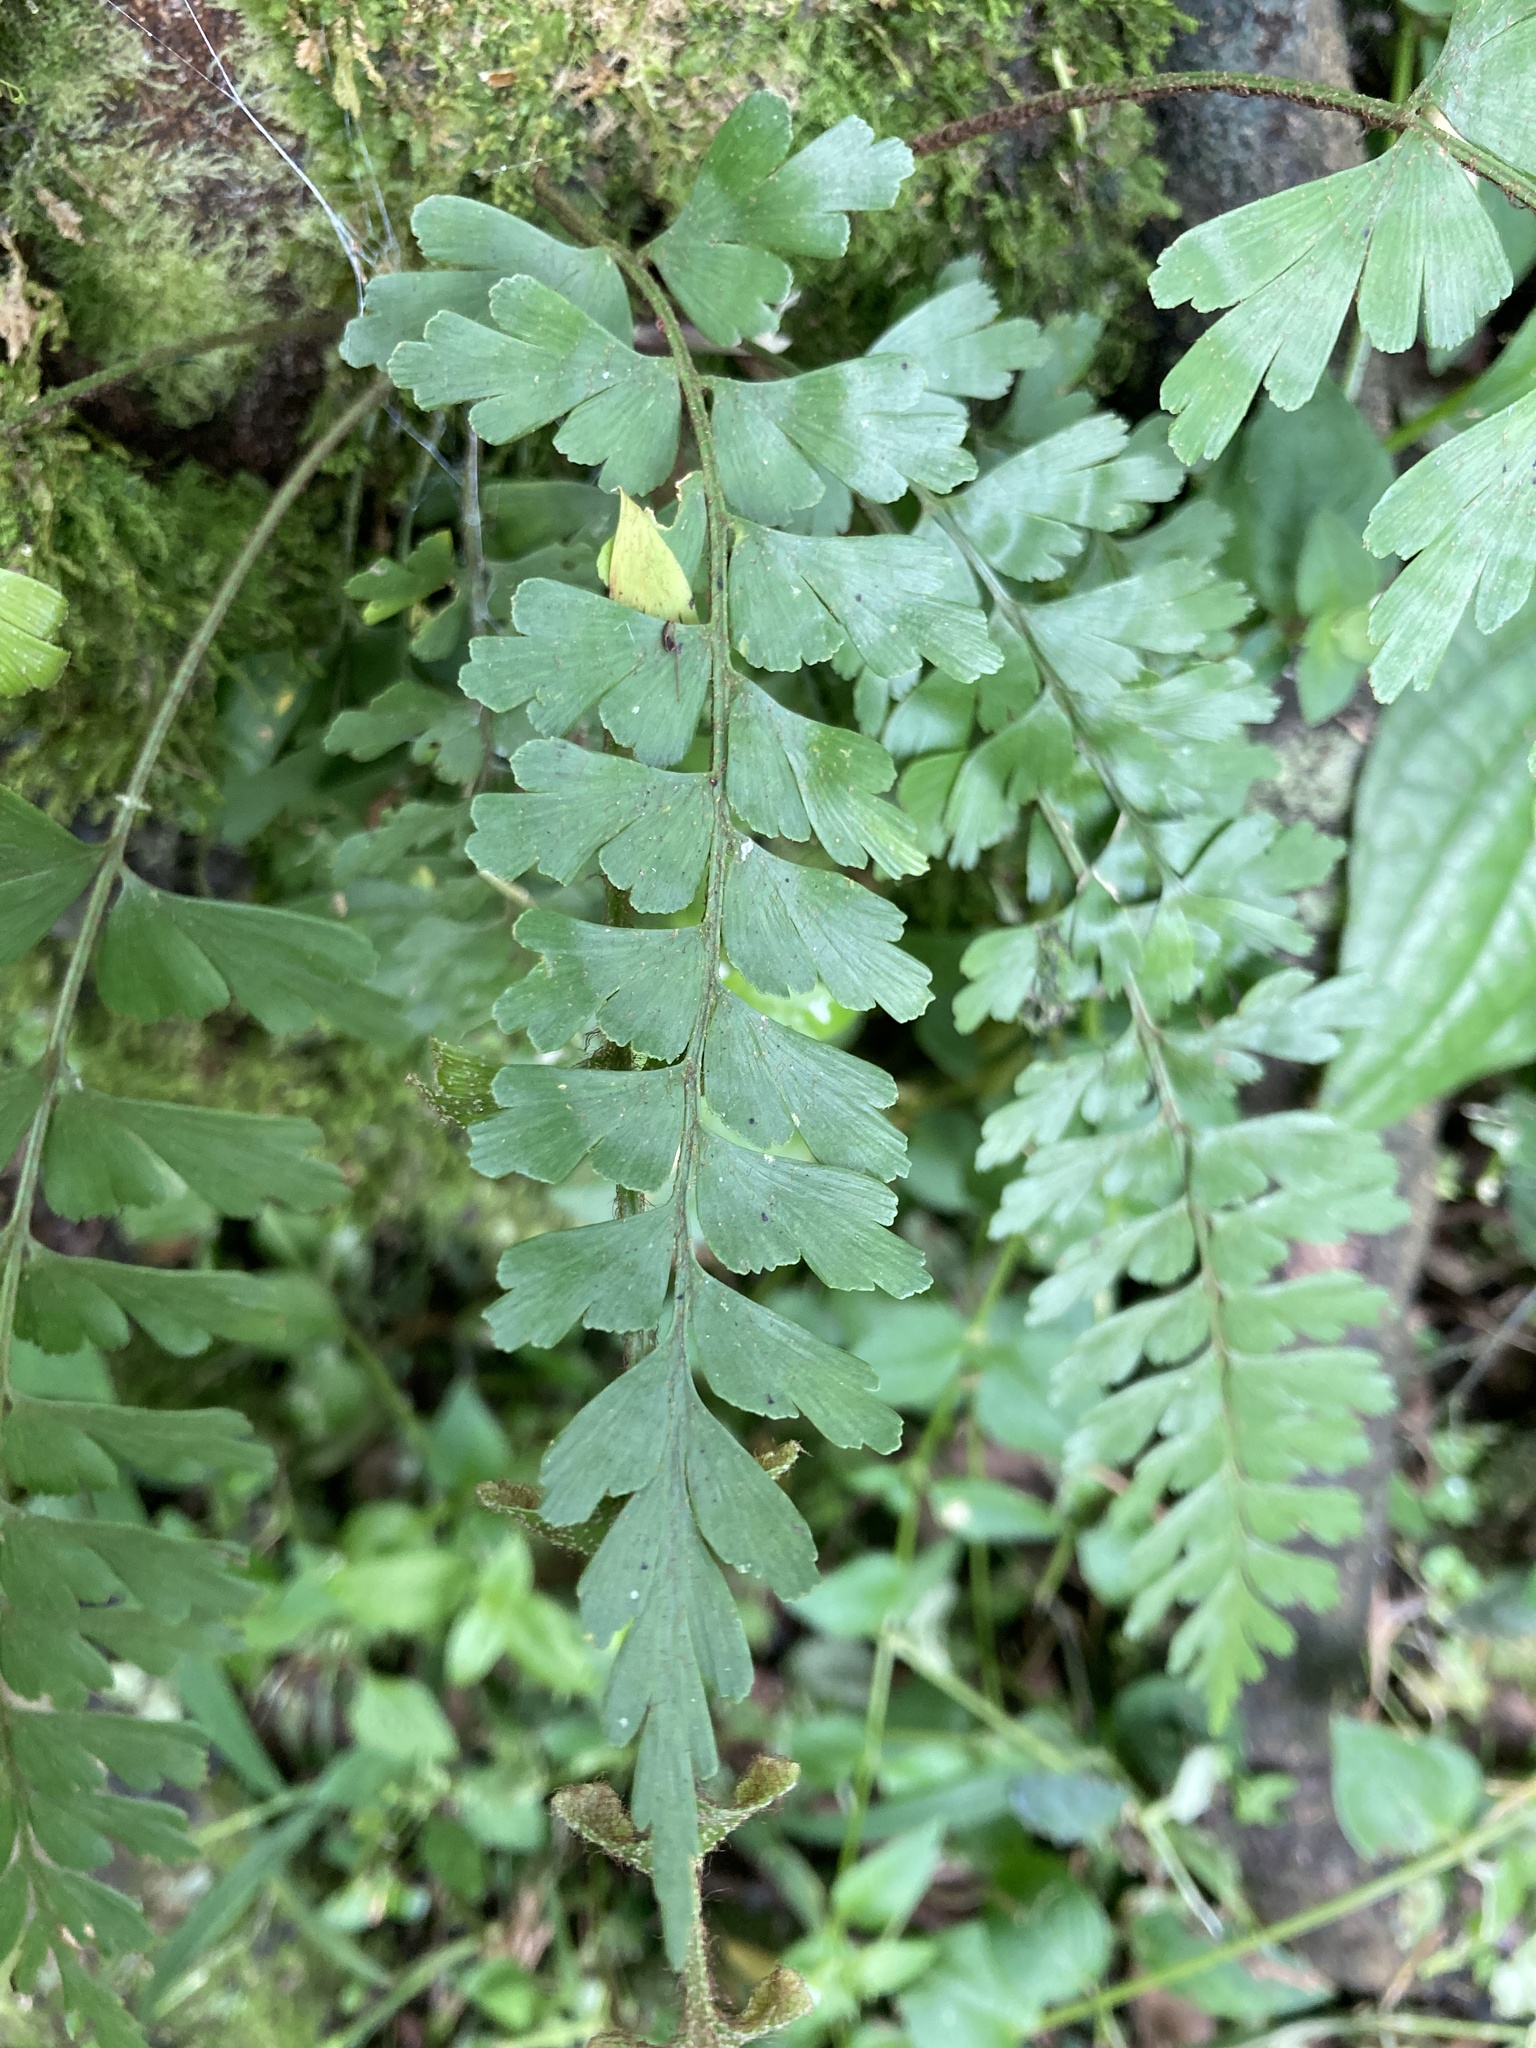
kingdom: Plantae
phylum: Tracheophyta
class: Polypodiopsida
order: Polypodiales
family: Aspleniaceae
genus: Asplenium
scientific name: Asplenium praemorsum
